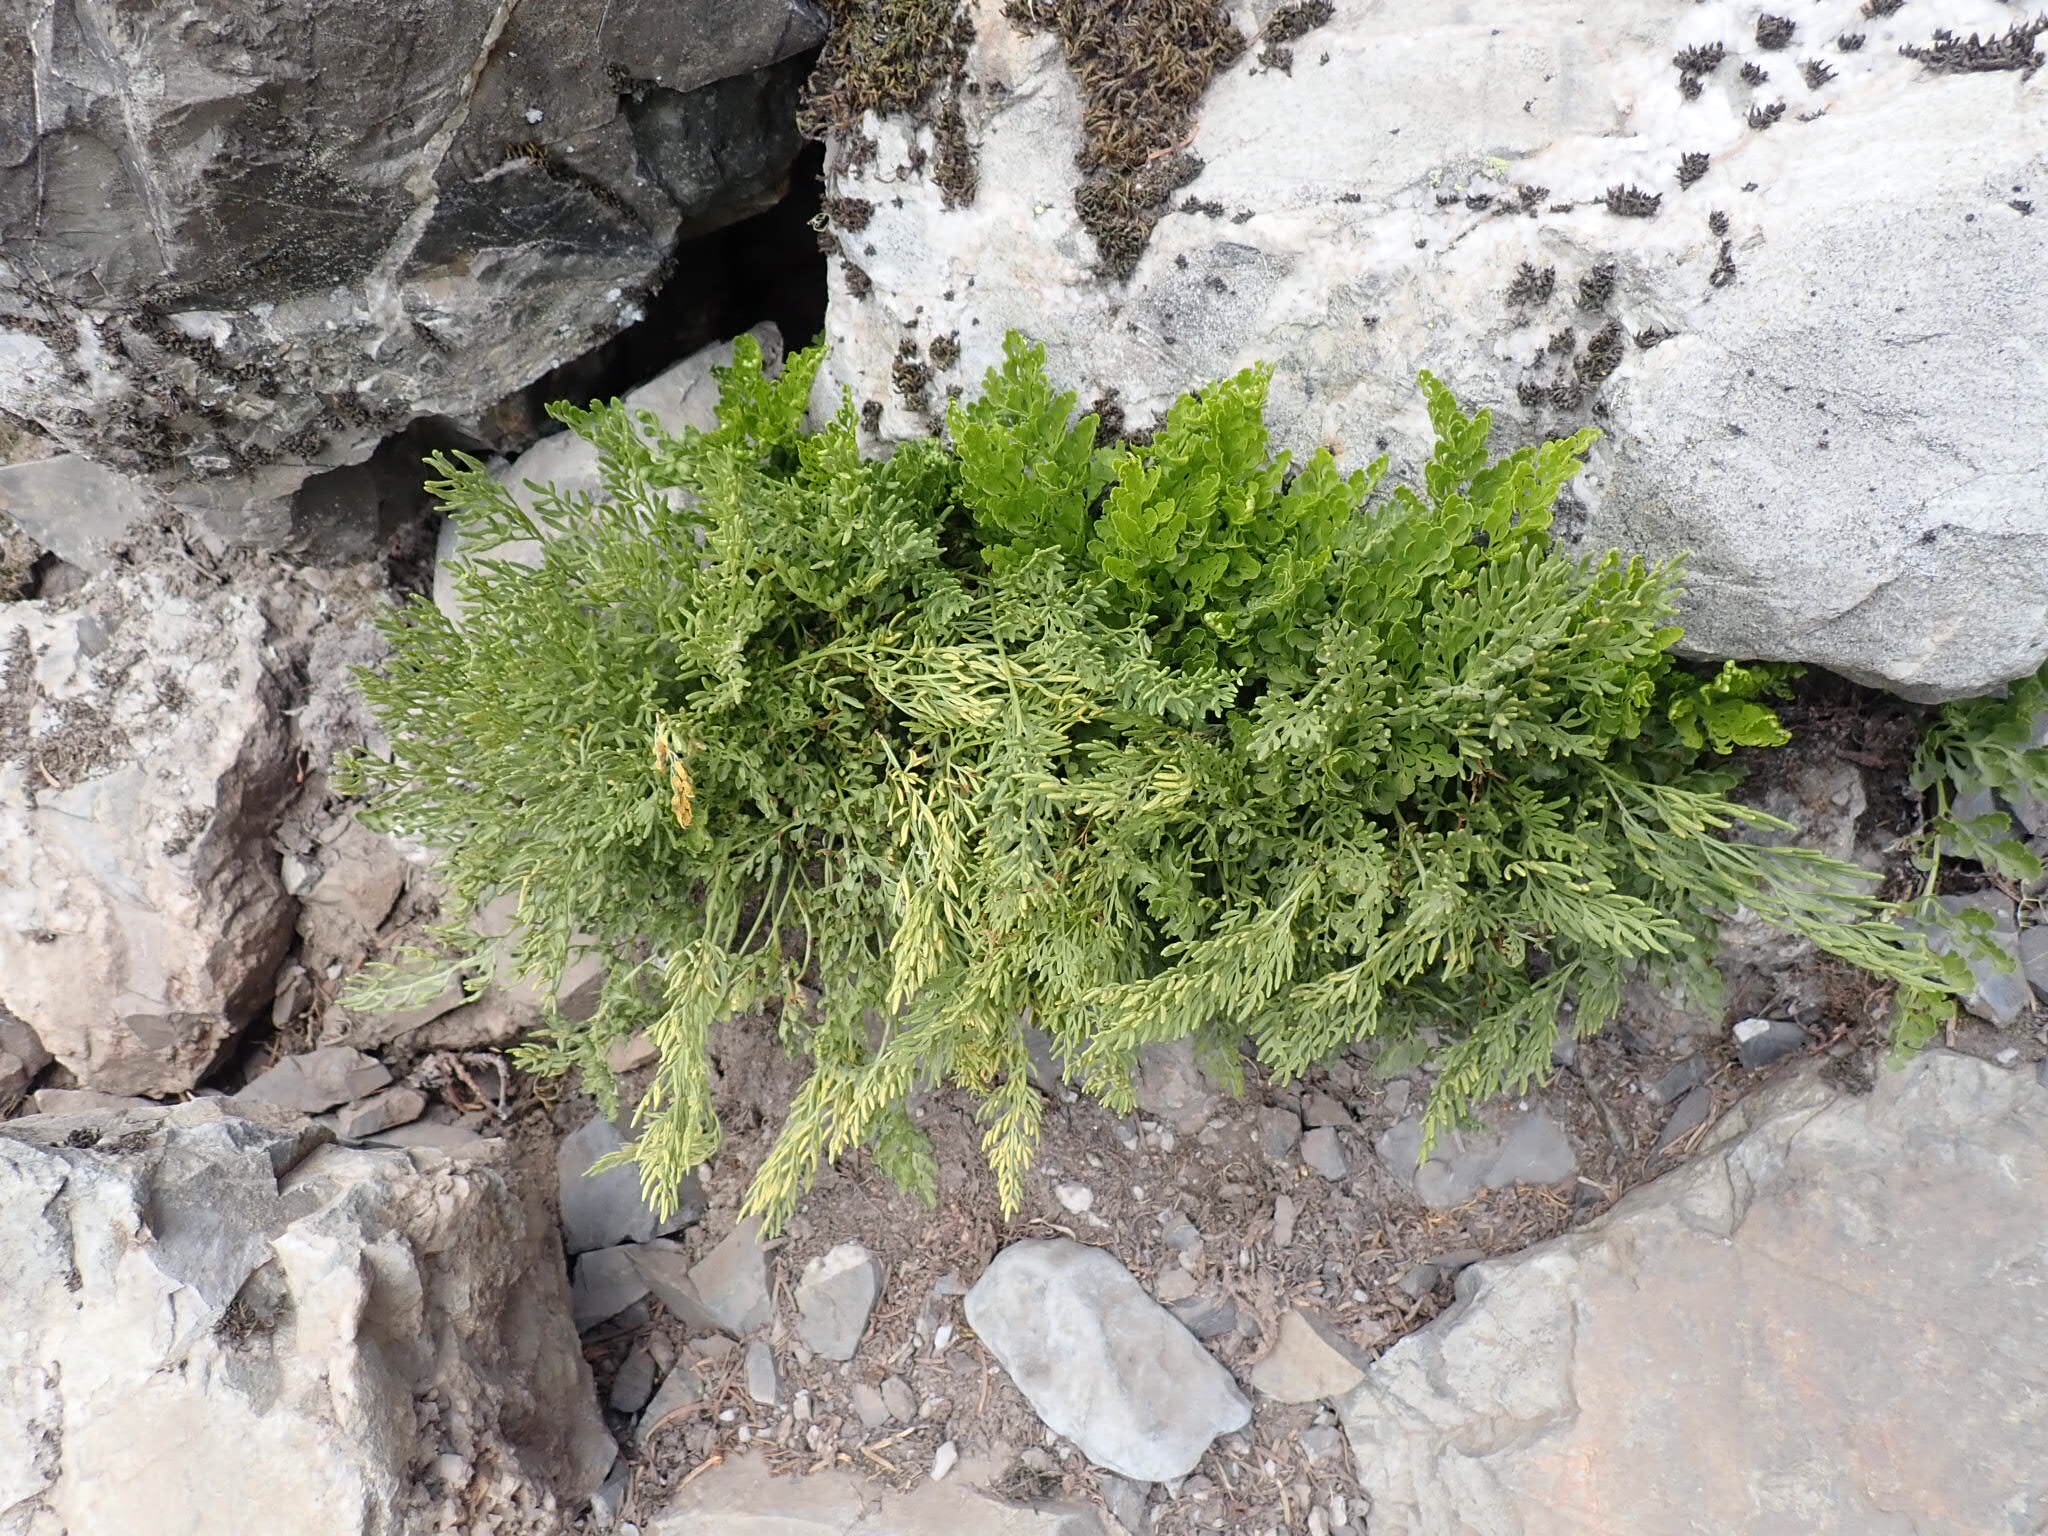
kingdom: Plantae
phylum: Tracheophyta
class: Polypodiopsida
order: Polypodiales
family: Pteridaceae
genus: Cryptogramma
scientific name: Cryptogramma cascadensis
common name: Cascade parsley fern
